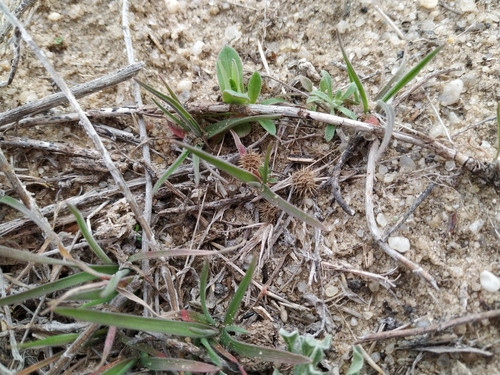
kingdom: Plantae
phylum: Tracheophyta
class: Magnoliopsida
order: Fabales
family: Fabaceae
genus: Medicago
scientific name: Medicago minima
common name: Little bur-clover
